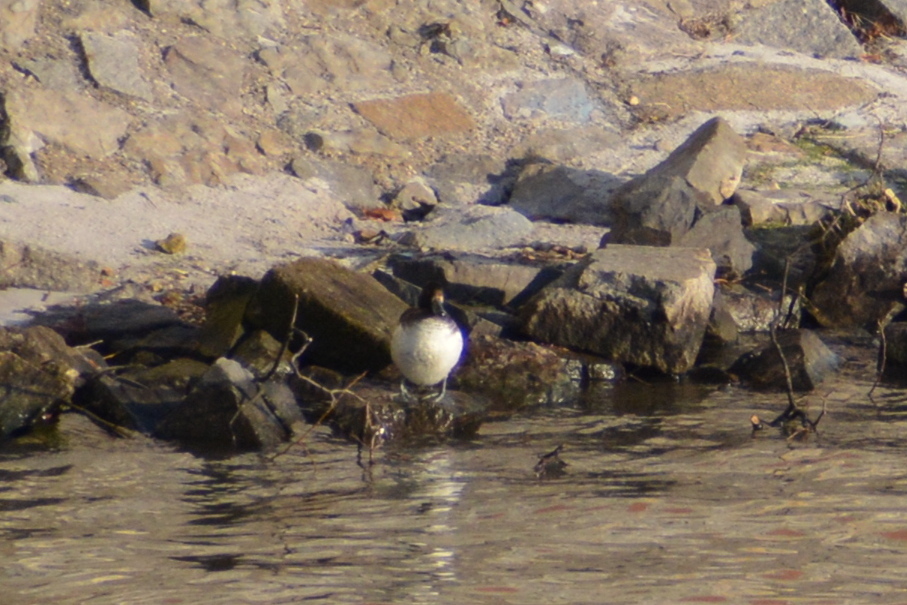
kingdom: Animalia
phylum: Chordata
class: Aves
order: Anseriformes
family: Anatidae
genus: Aythya
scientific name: Aythya fuligula
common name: Tufted duck
